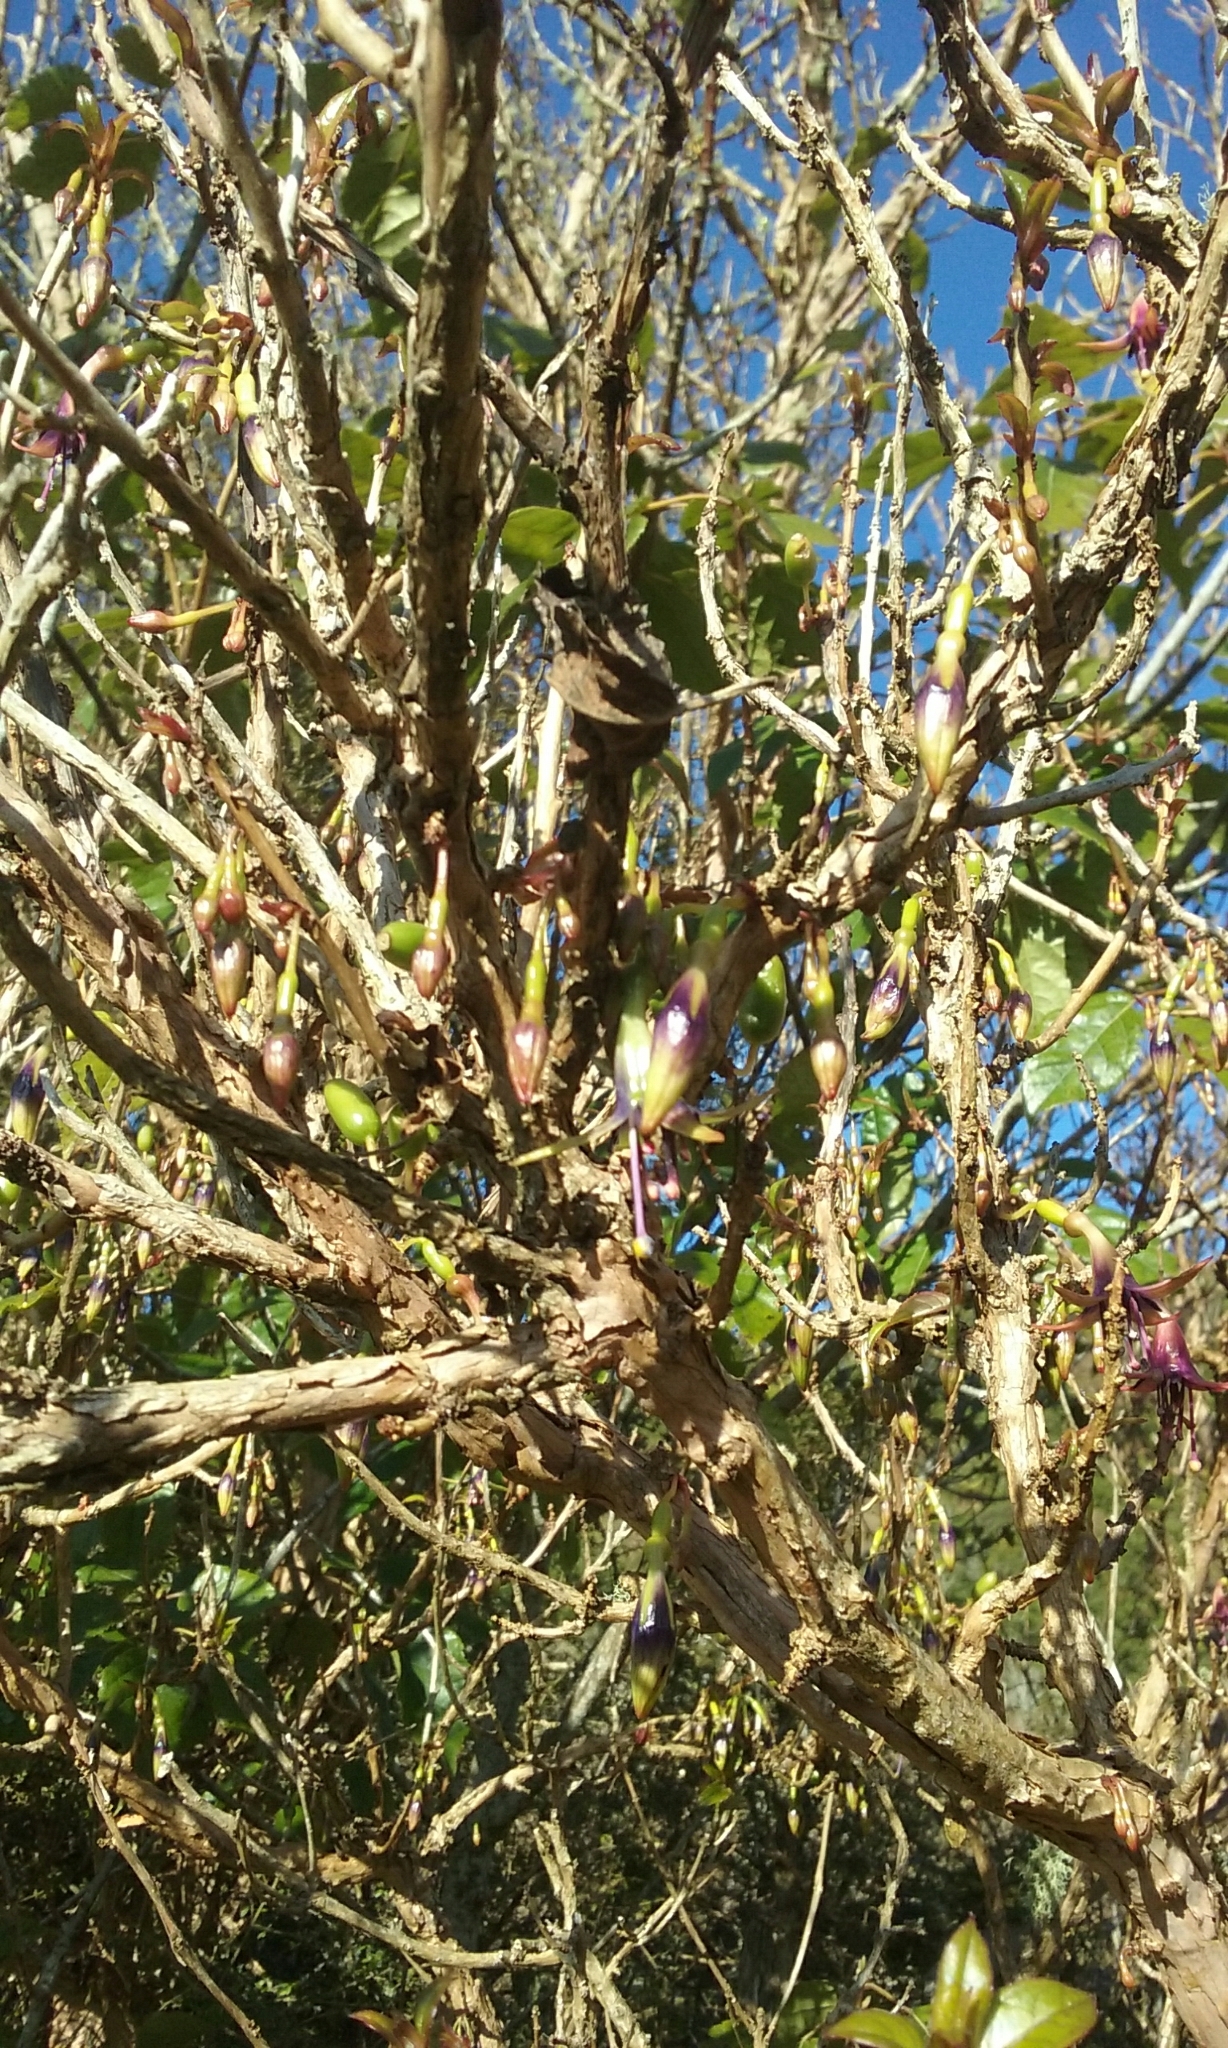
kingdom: Plantae
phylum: Tracheophyta
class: Magnoliopsida
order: Myrtales
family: Onagraceae
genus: Fuchsia
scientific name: Fuchsia excorticata
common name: Tree fuchsia
